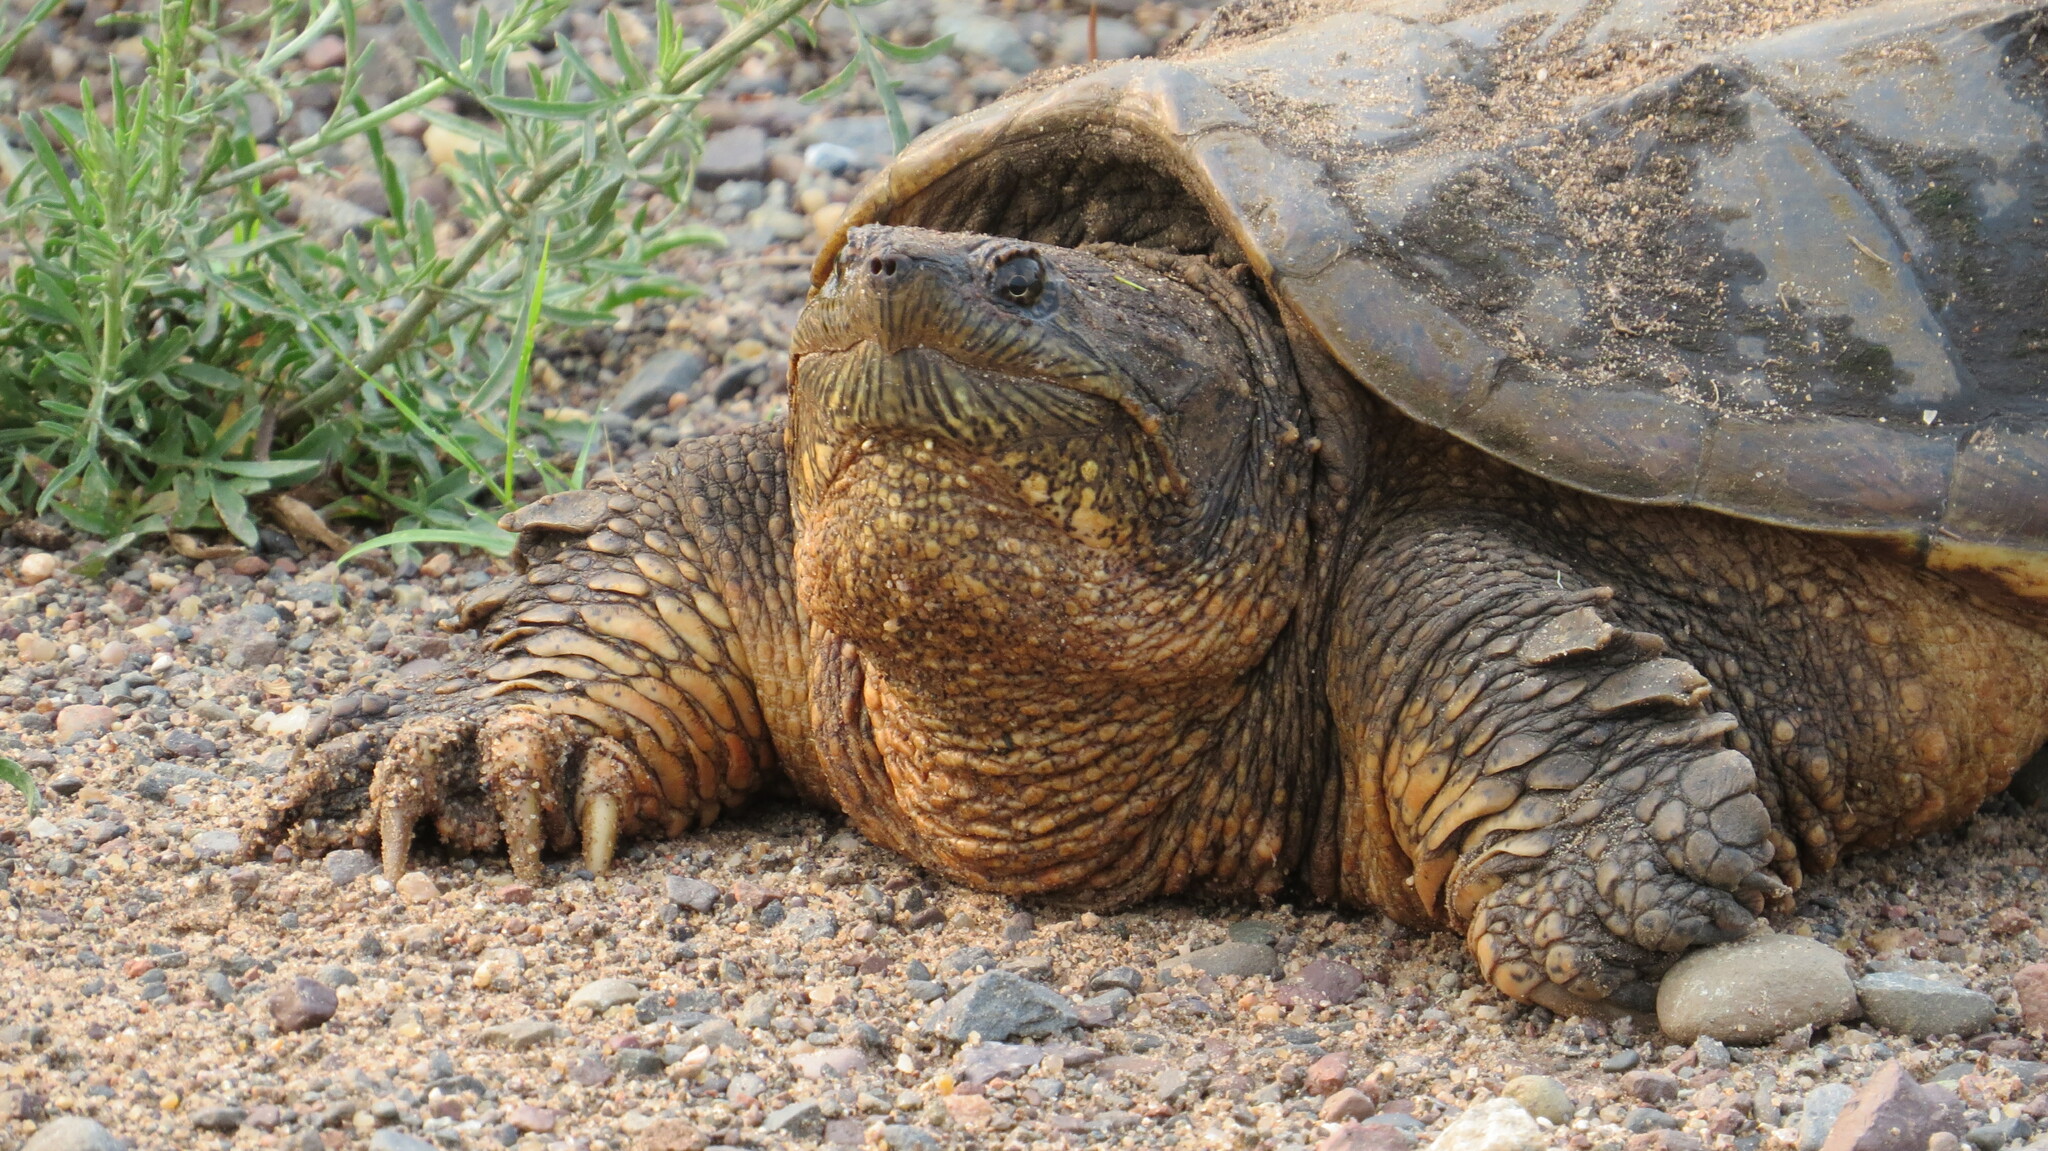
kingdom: Animalia
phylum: Chordata
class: Testudines
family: Chelydridae
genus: Chelydra
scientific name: Chelydra serpentina
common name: Common snapping turtle
